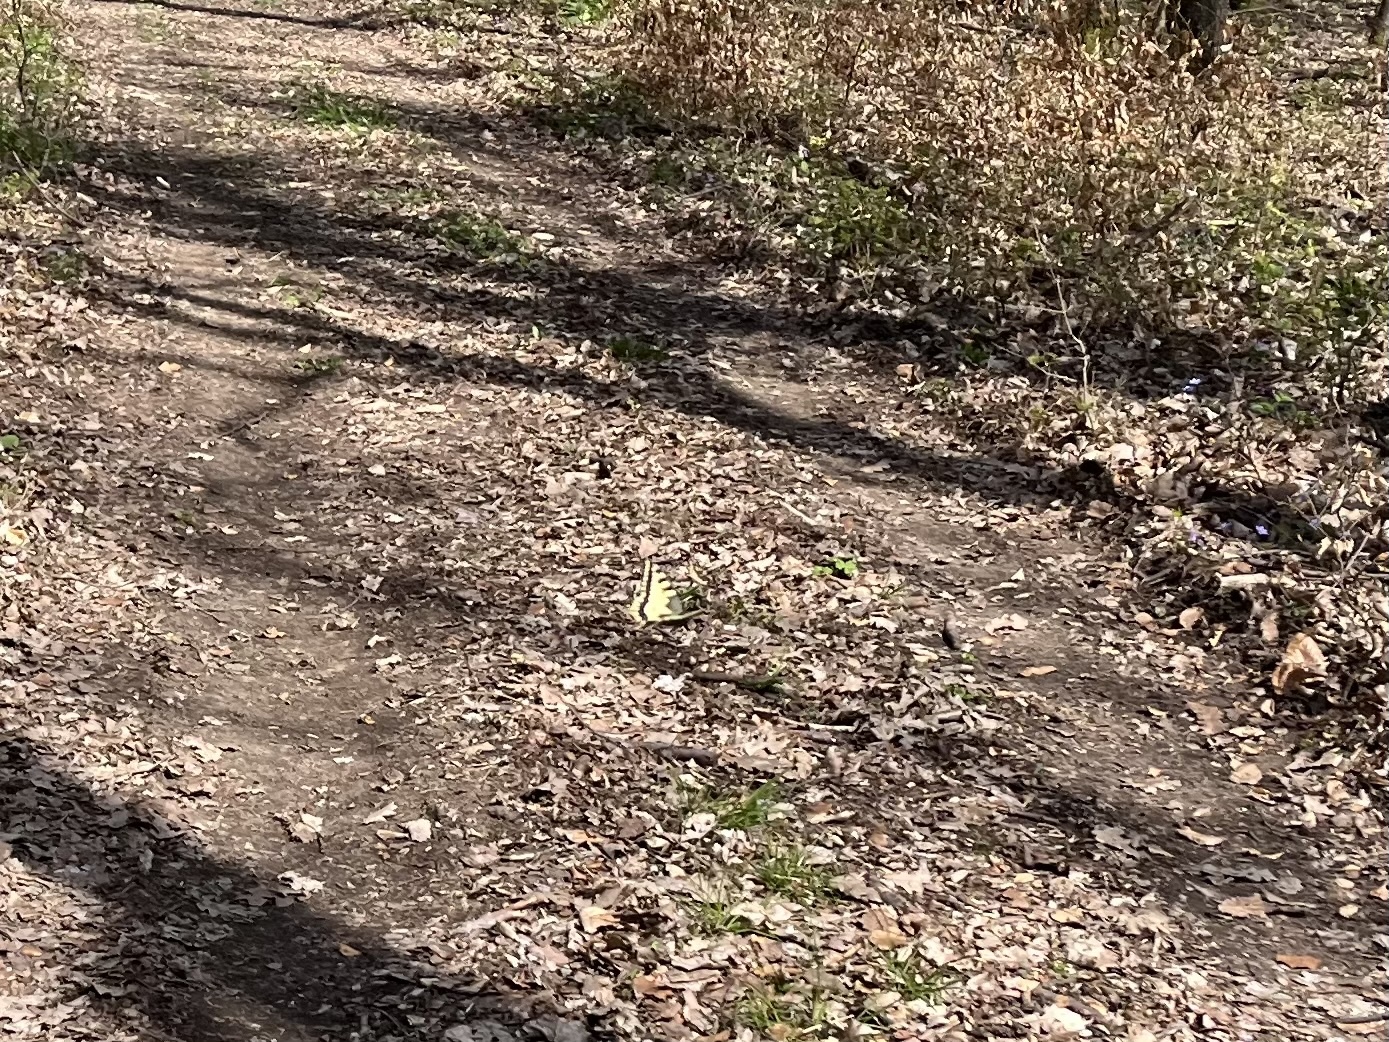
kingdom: Animalia
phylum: Arthropoda
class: Insecta
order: Lepidoptera
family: Papilionidae
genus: Papilio
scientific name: Papilio machaon
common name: Swallowtail
